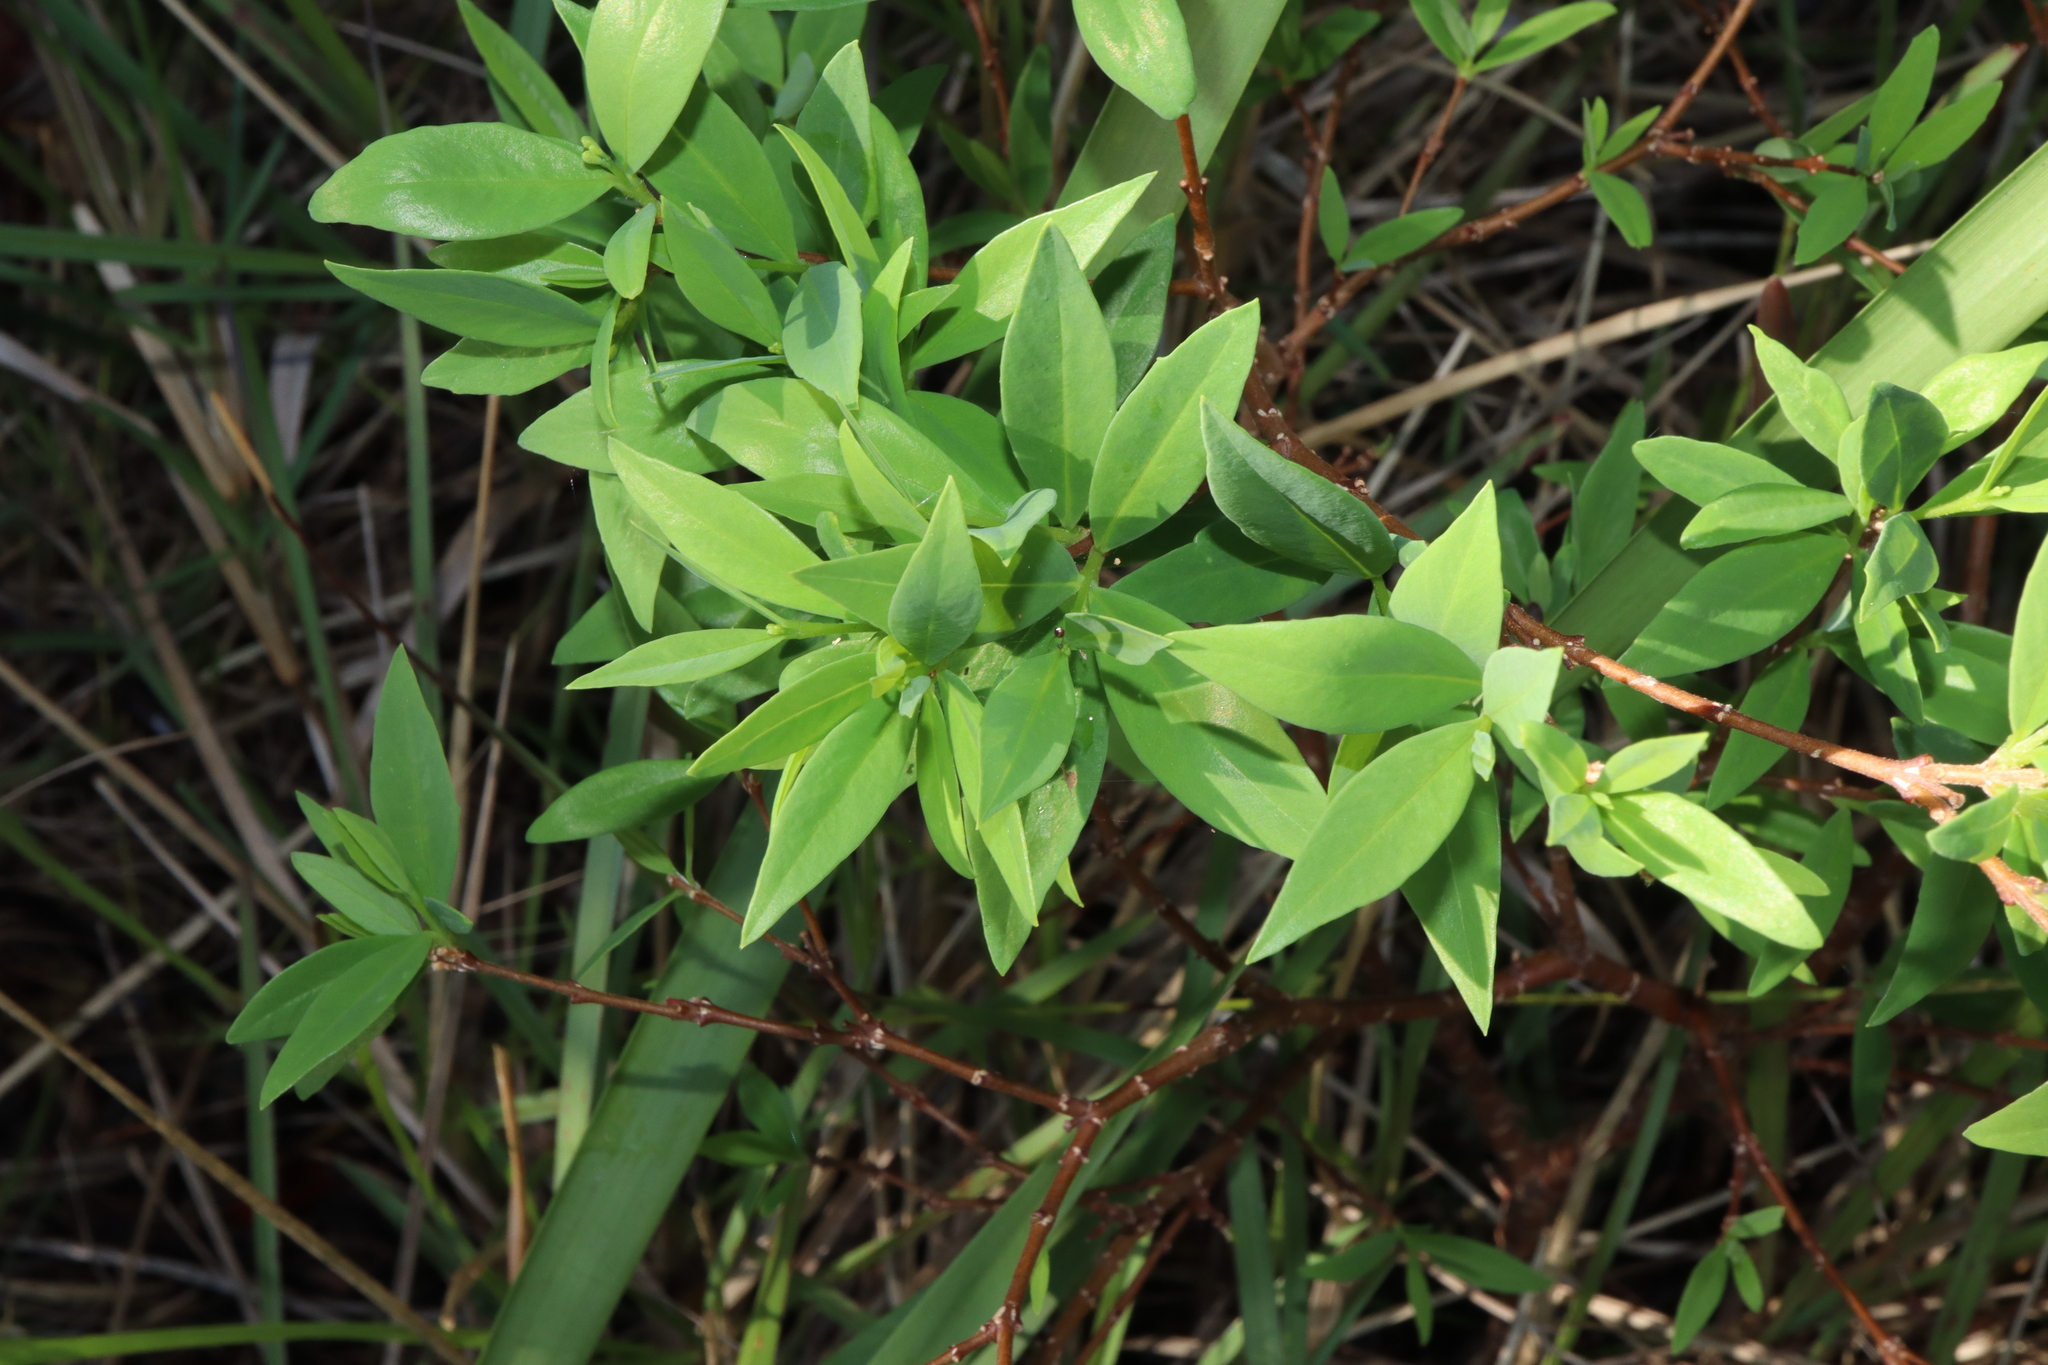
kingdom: Plantae
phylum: Tracheophyta
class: Magnoliopsida
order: Malvales
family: Thymelaeaceae
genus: Wikstroemia
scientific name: Wikstroemia indica
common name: Tiebush
